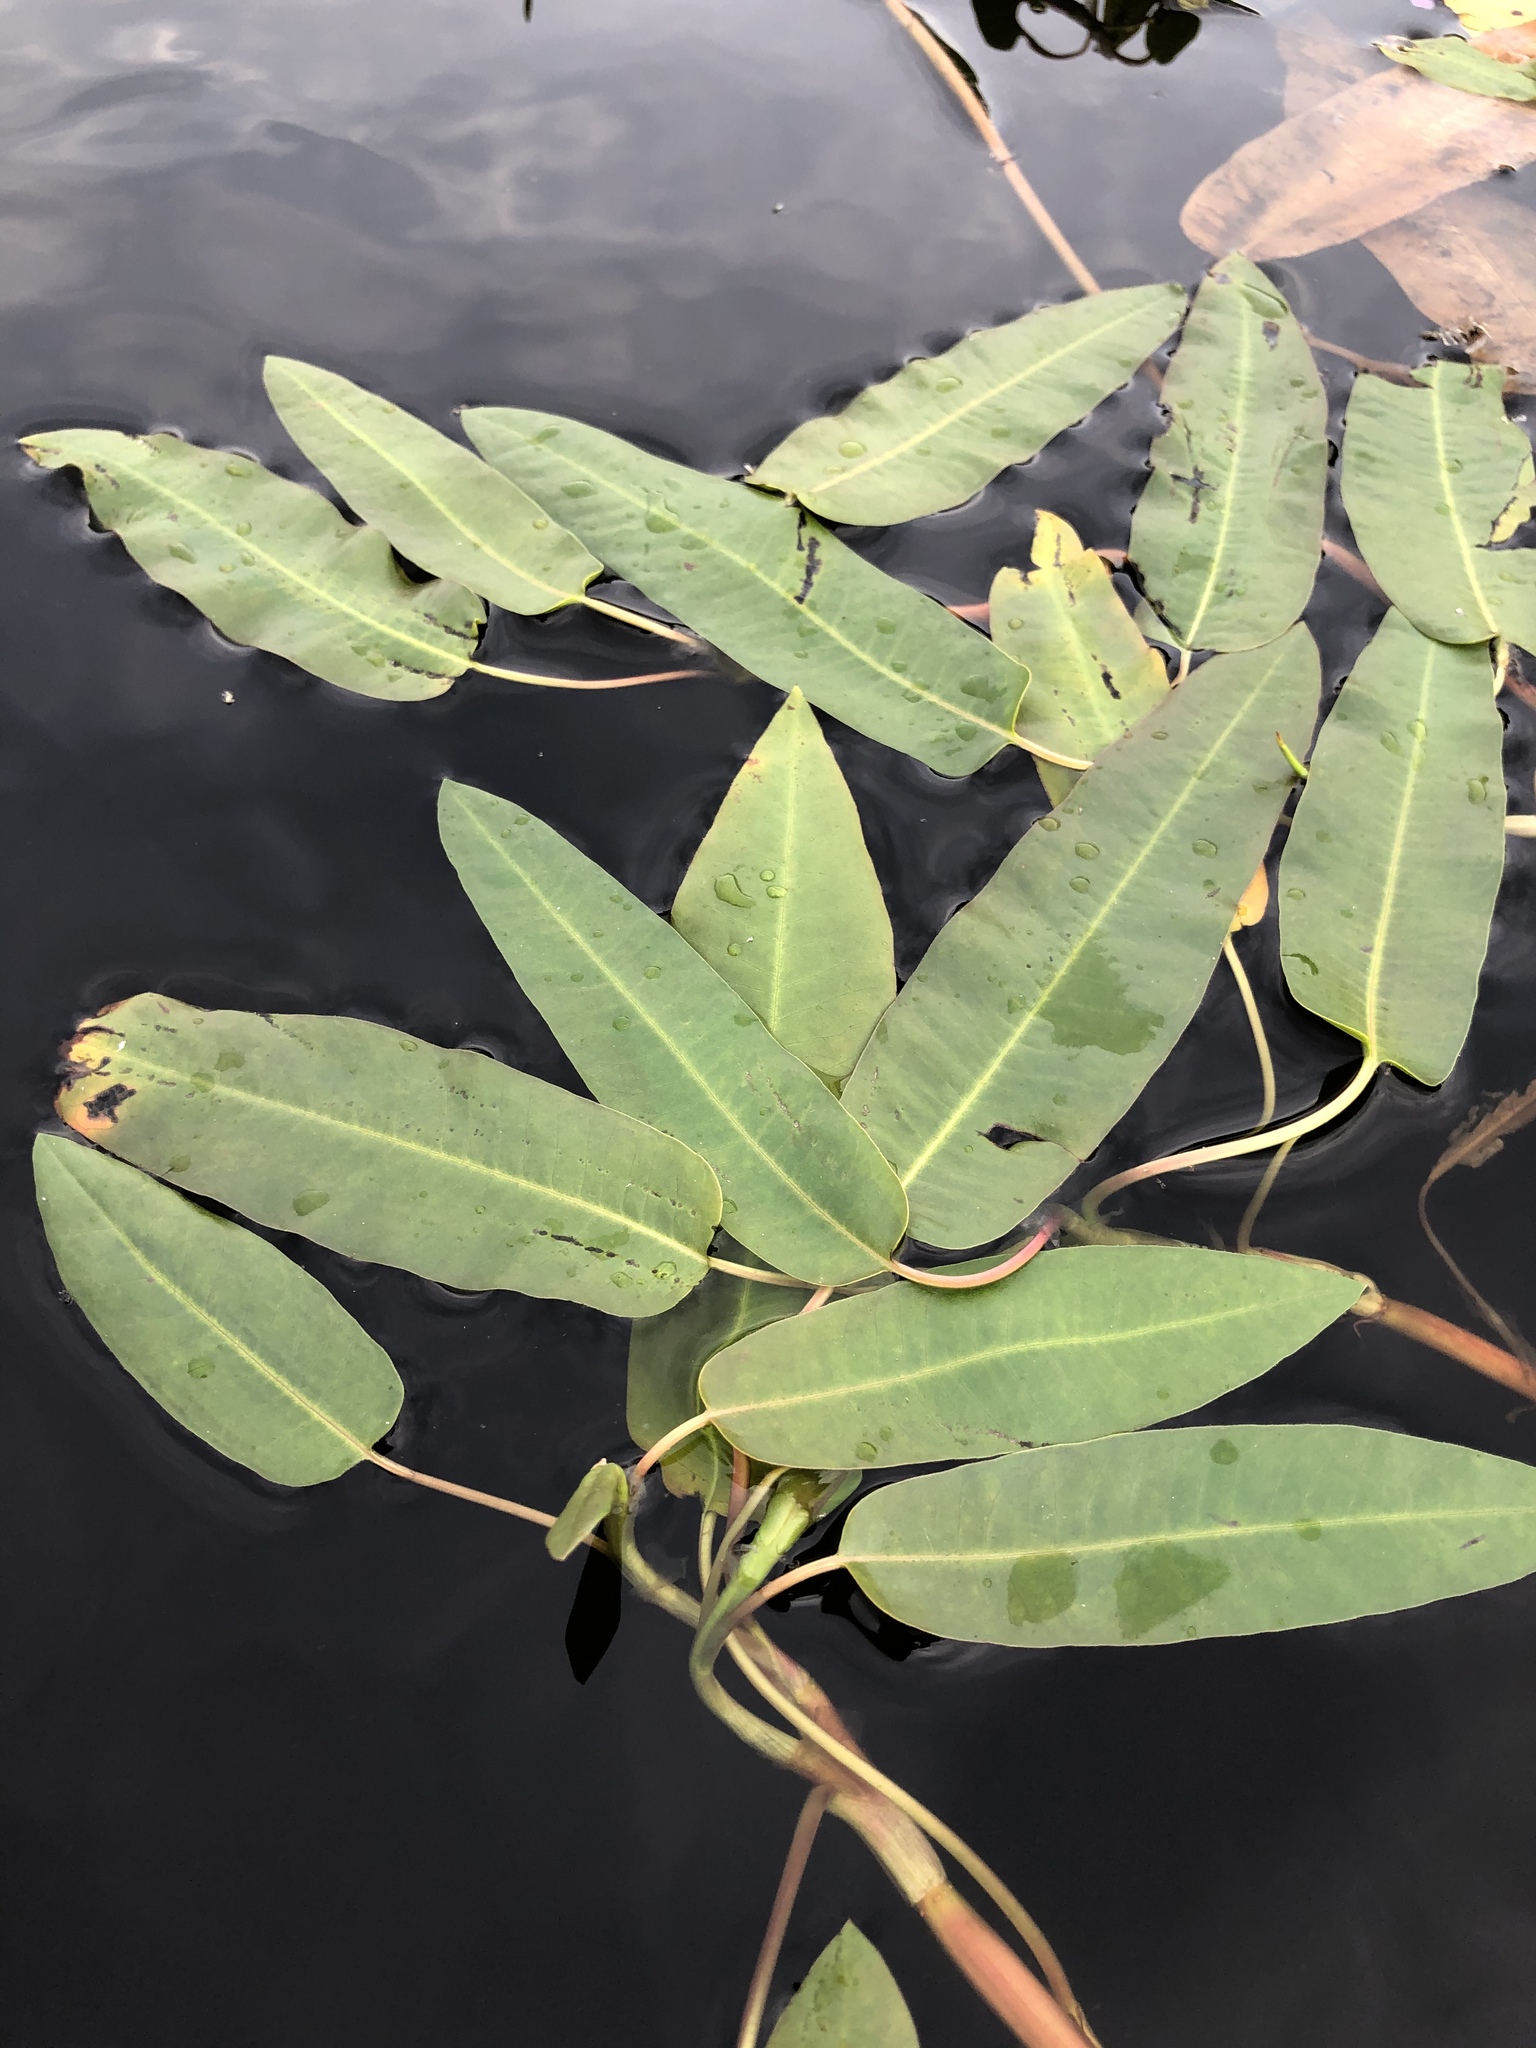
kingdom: Plantae
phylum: Tracheophyta
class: Magnoliopsida
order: Caryophyllales
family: Polygonaceae
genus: Persicaria
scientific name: Persicaria amphibia
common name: Amphibious bistort
